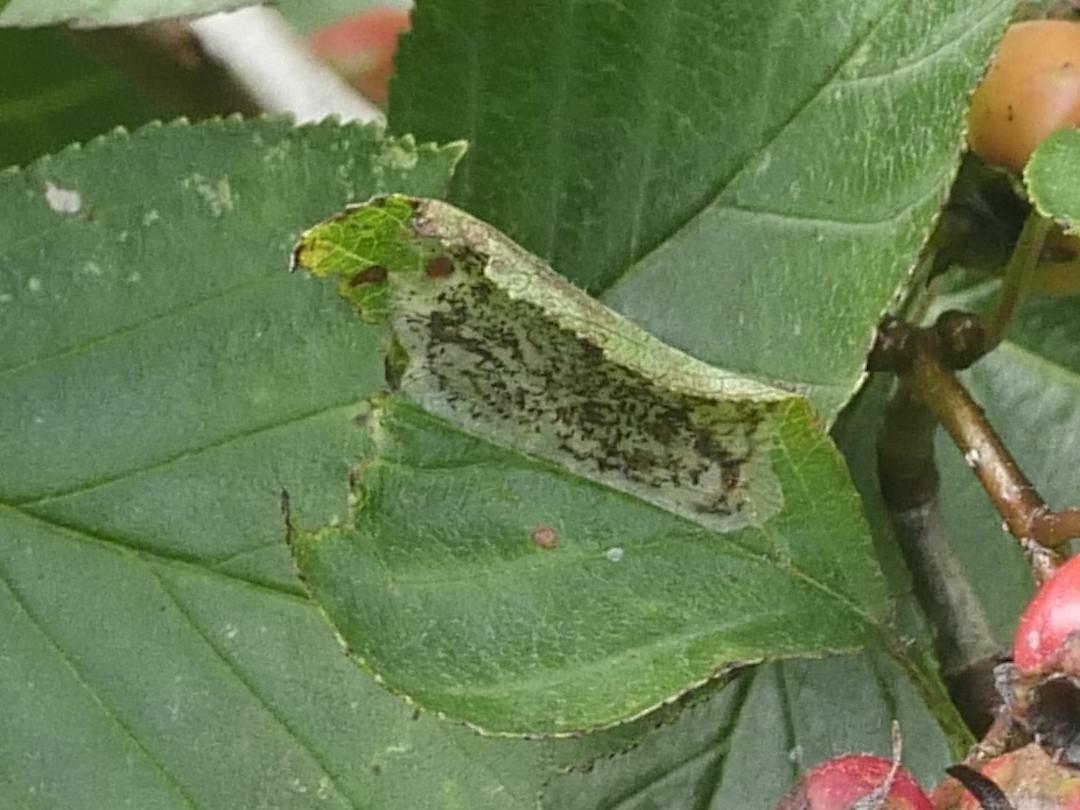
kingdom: Animalia
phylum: Arthropoda
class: Insecta
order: Lepidoptera
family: Gracillariidae
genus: Parornix
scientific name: Parornix inusitatumella
